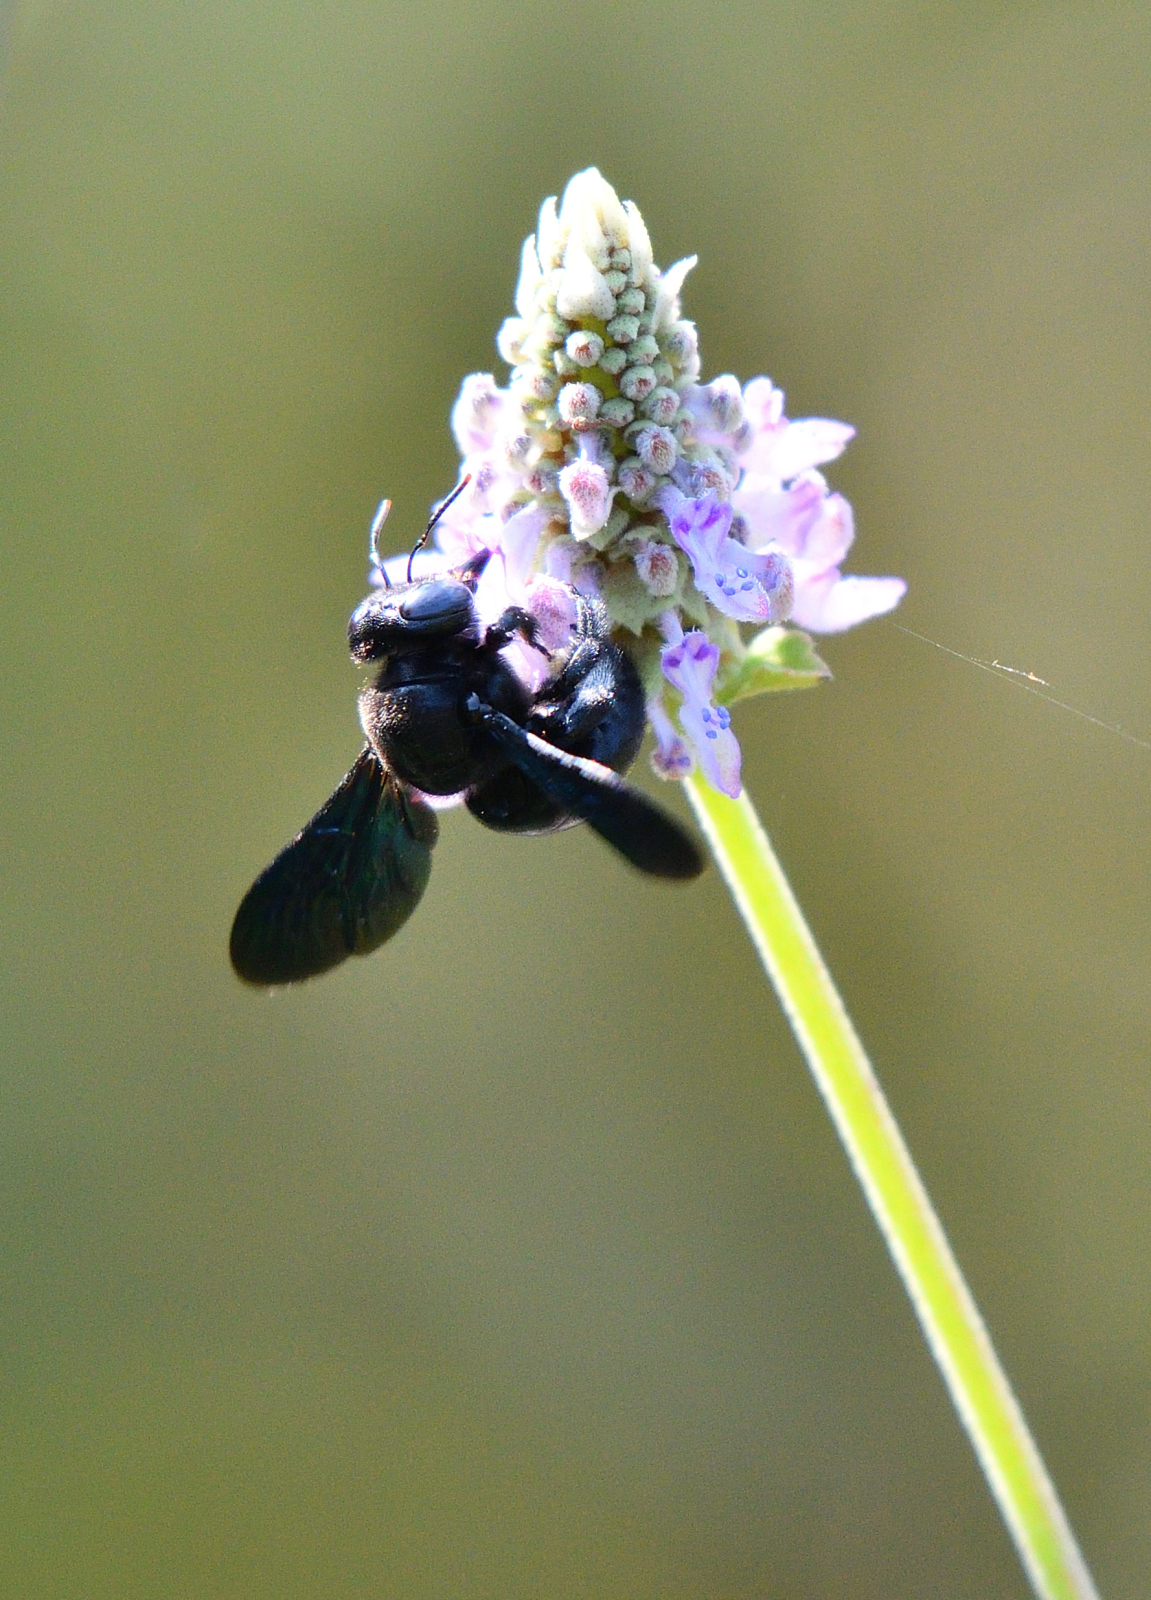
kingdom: Animalia
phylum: Arthropoda
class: Insecta
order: Hymenoptera
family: Apidae
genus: Xylocopa
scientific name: Xylocopa fenestrata
